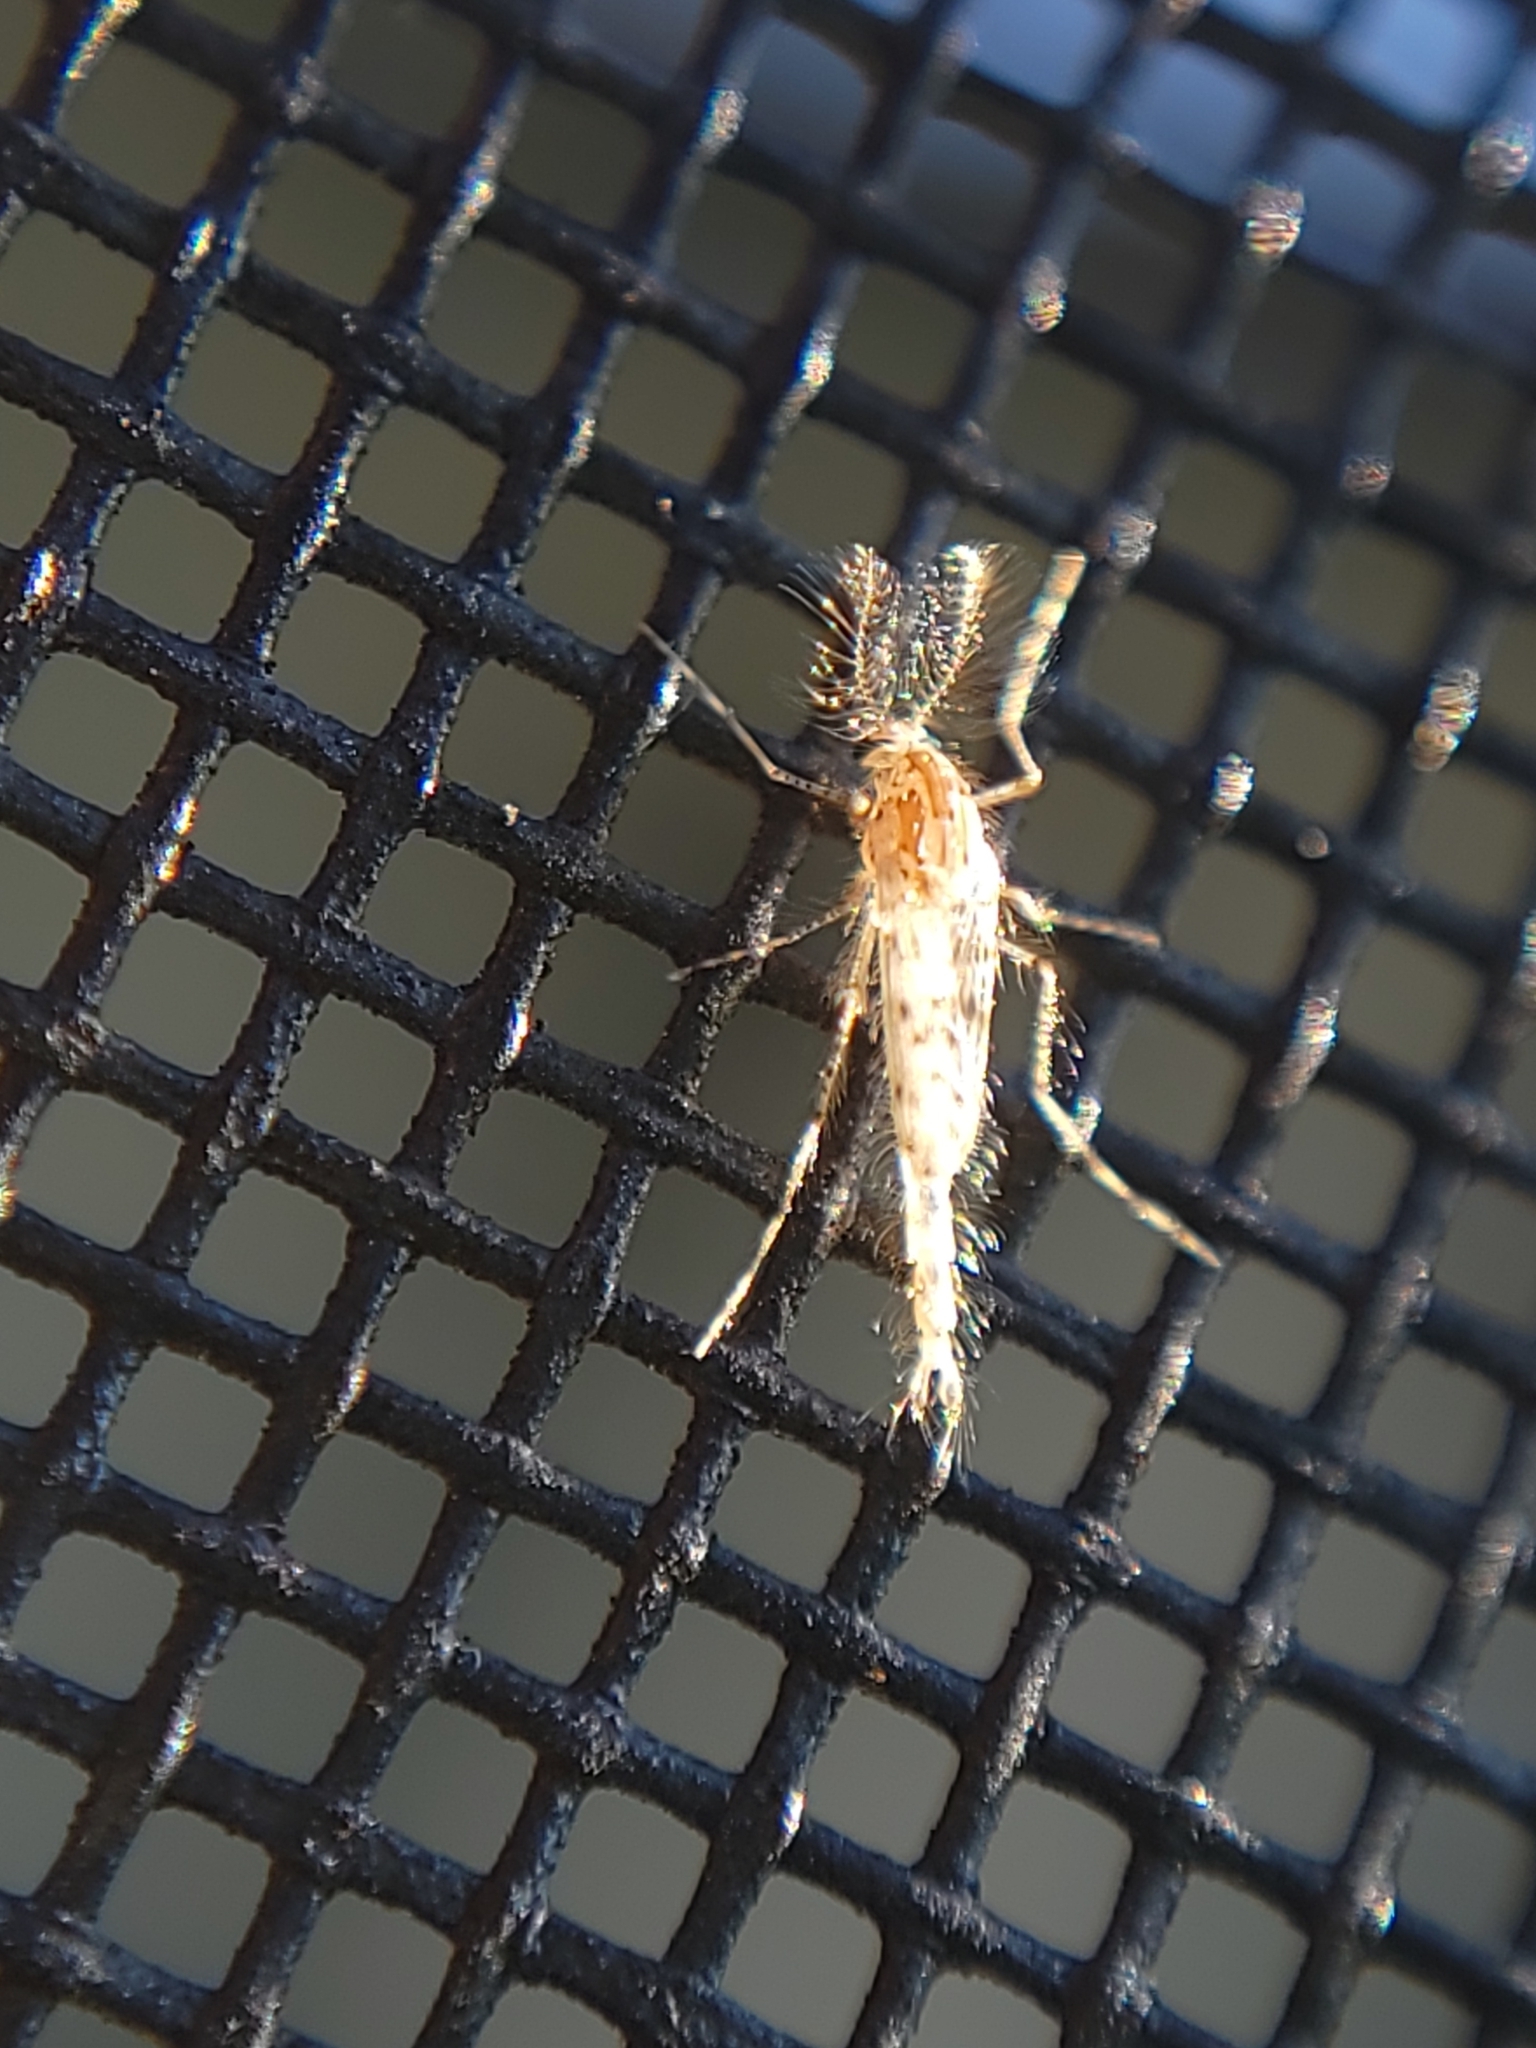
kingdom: Animalia
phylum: Arthropoda
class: Insecta
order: Diptera
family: Chaoboridae
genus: Chaoborus
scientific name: Chaoborus punctipennis
